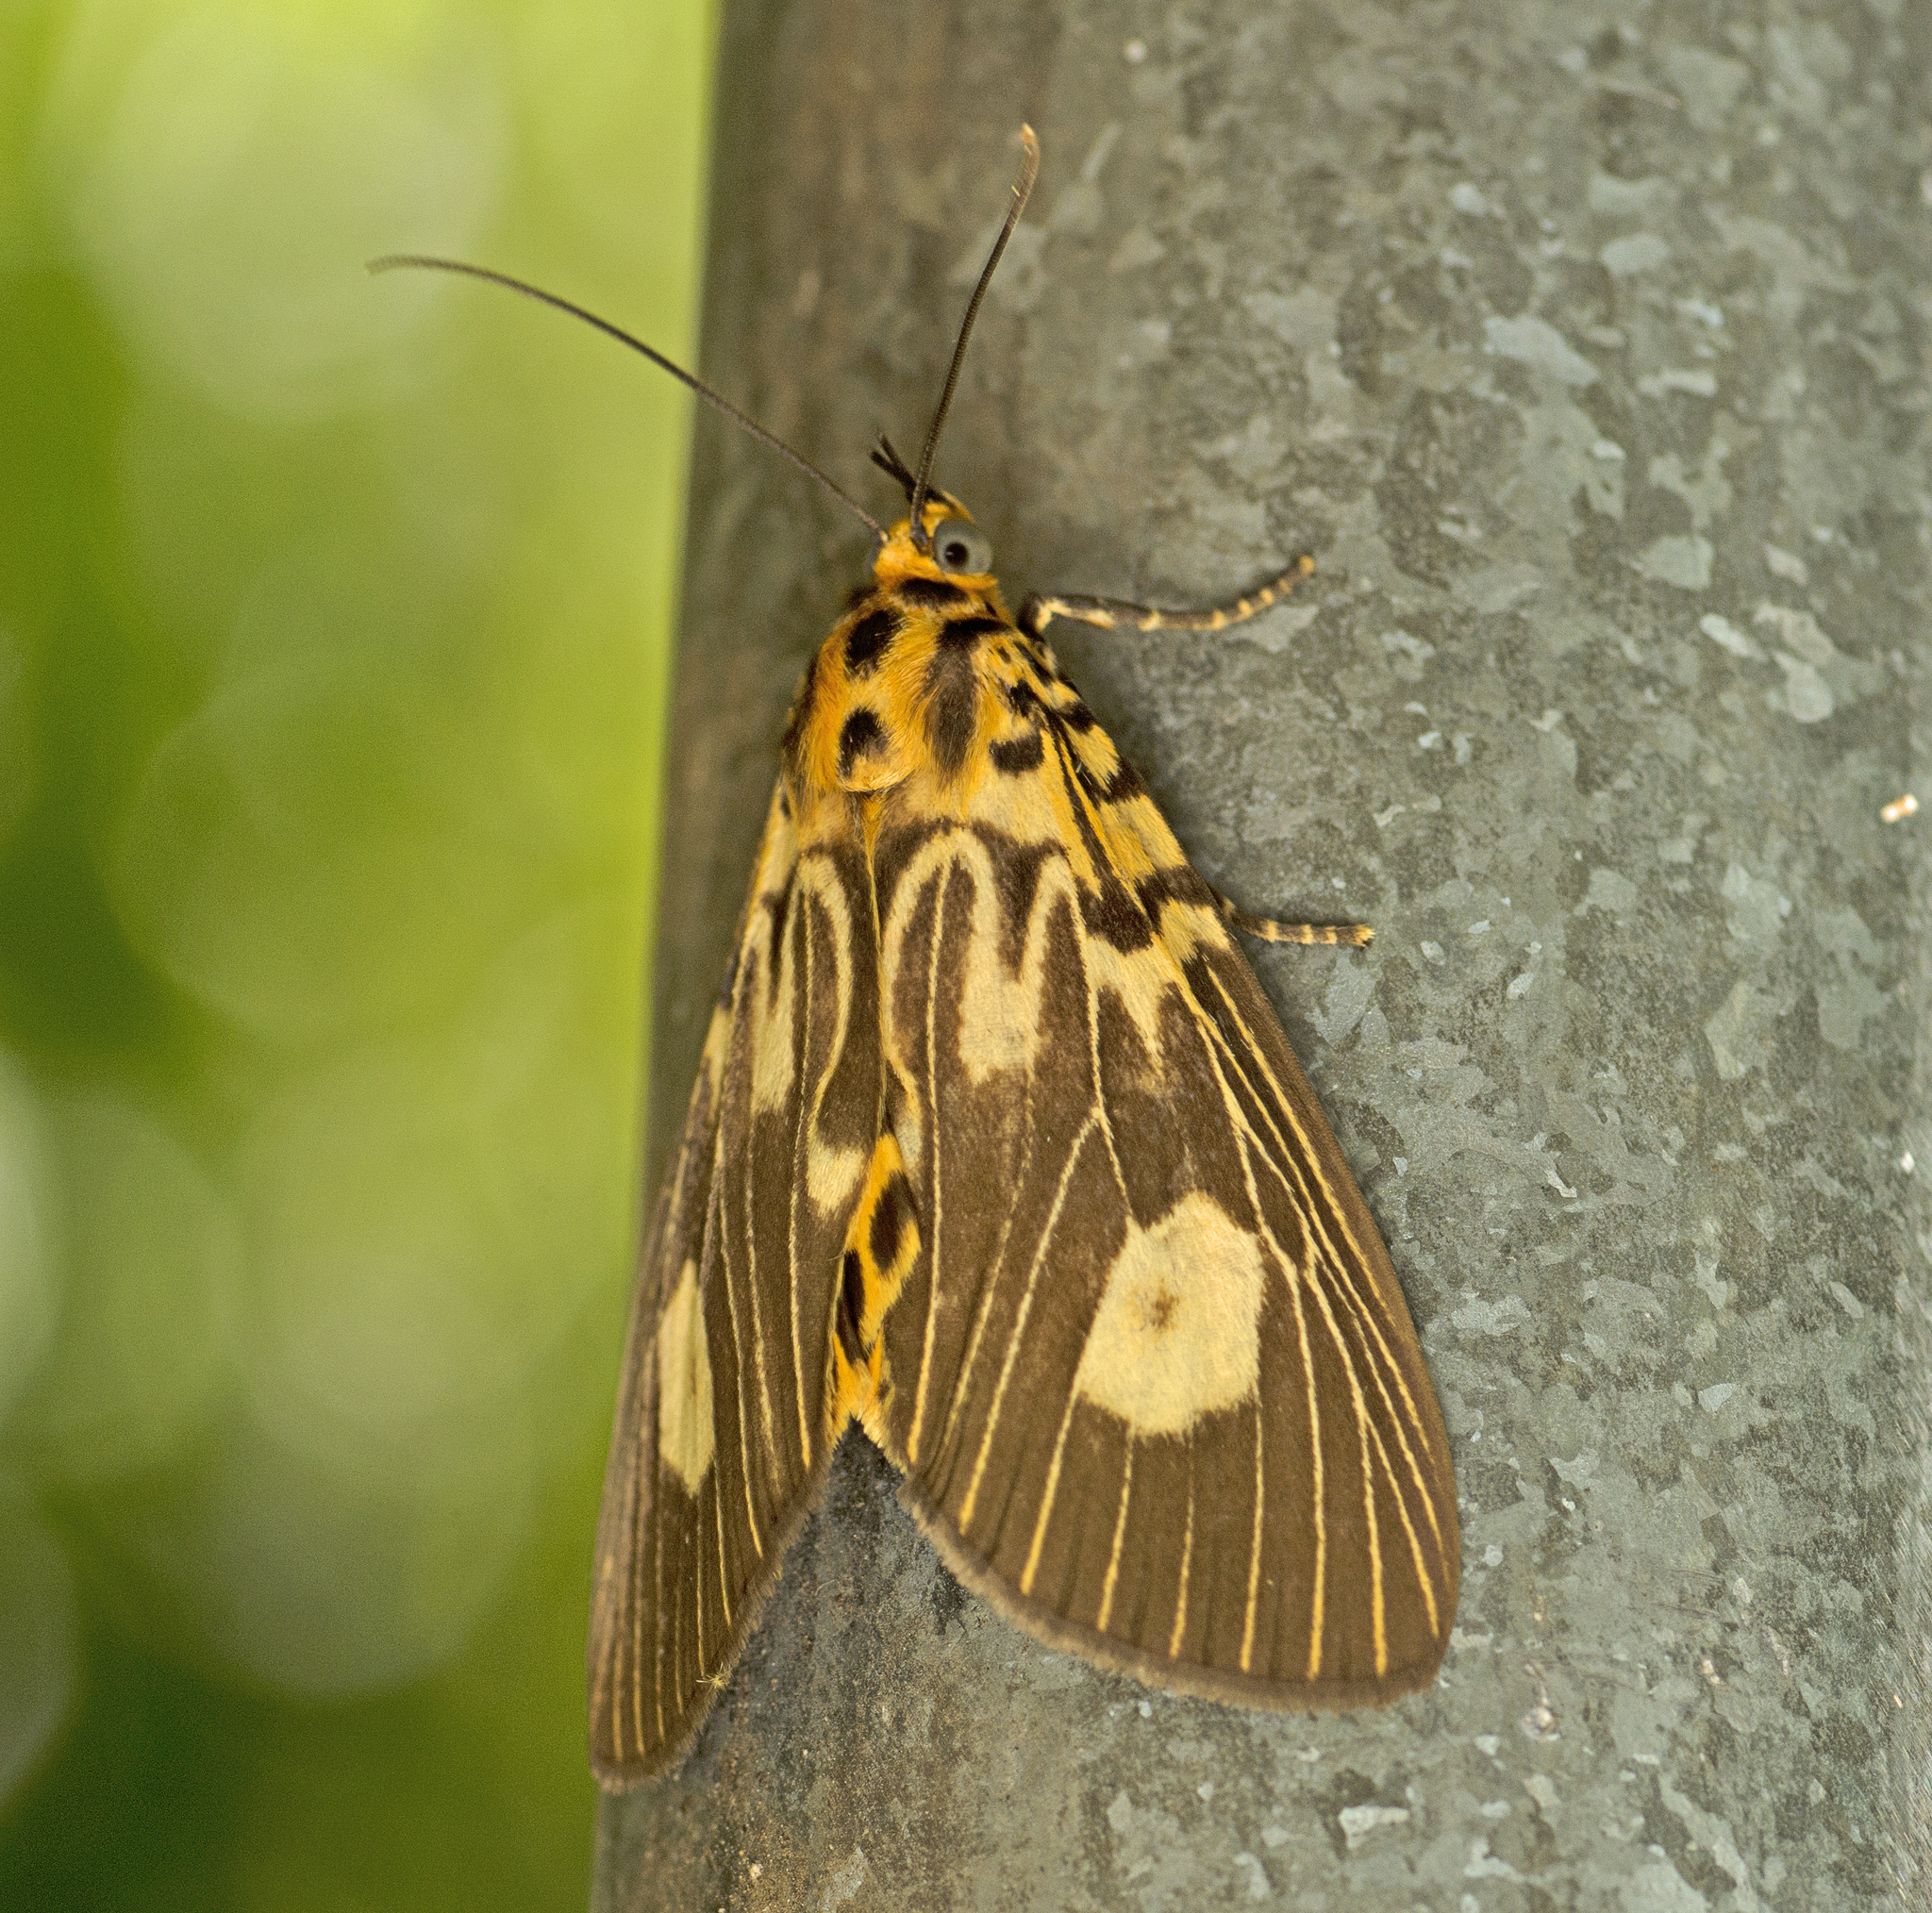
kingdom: Animalia
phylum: Arthropoda
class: Insecta
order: Lepidoptera
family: Erebidae
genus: Asota
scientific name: Asota plagiata
